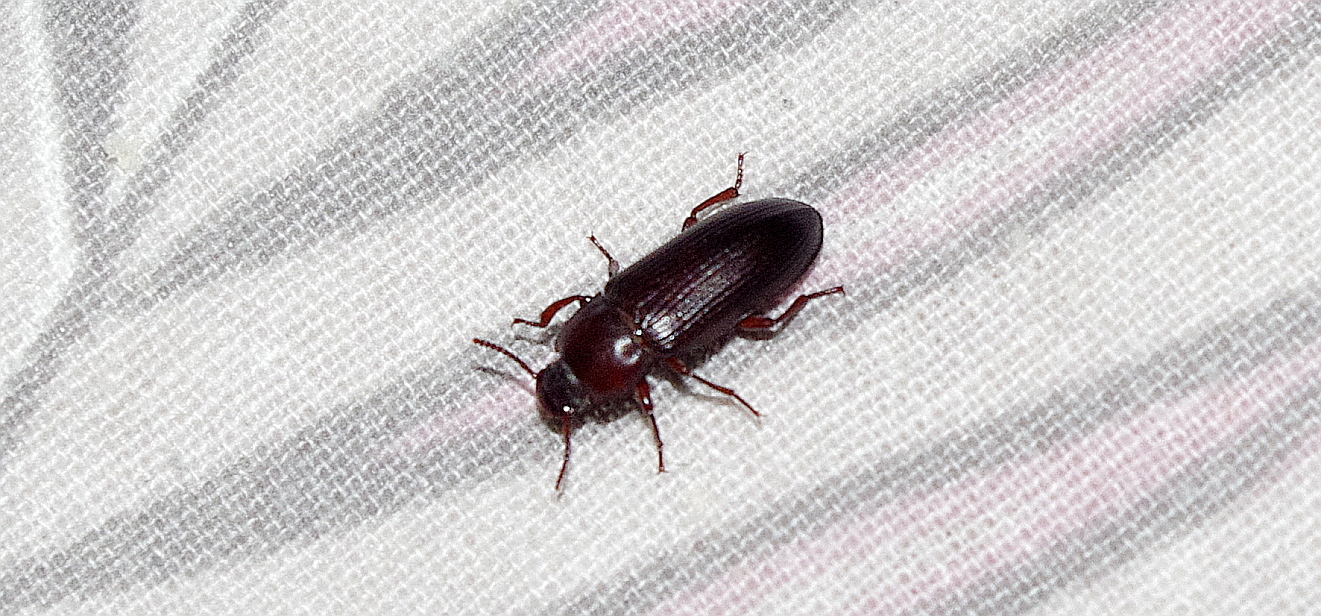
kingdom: Animalia
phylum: Arthropoda
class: Insecta
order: Coleoptera
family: Tenebrionidae
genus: Tenebrio
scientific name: Tenebrio molitor
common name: Hardback beetle
